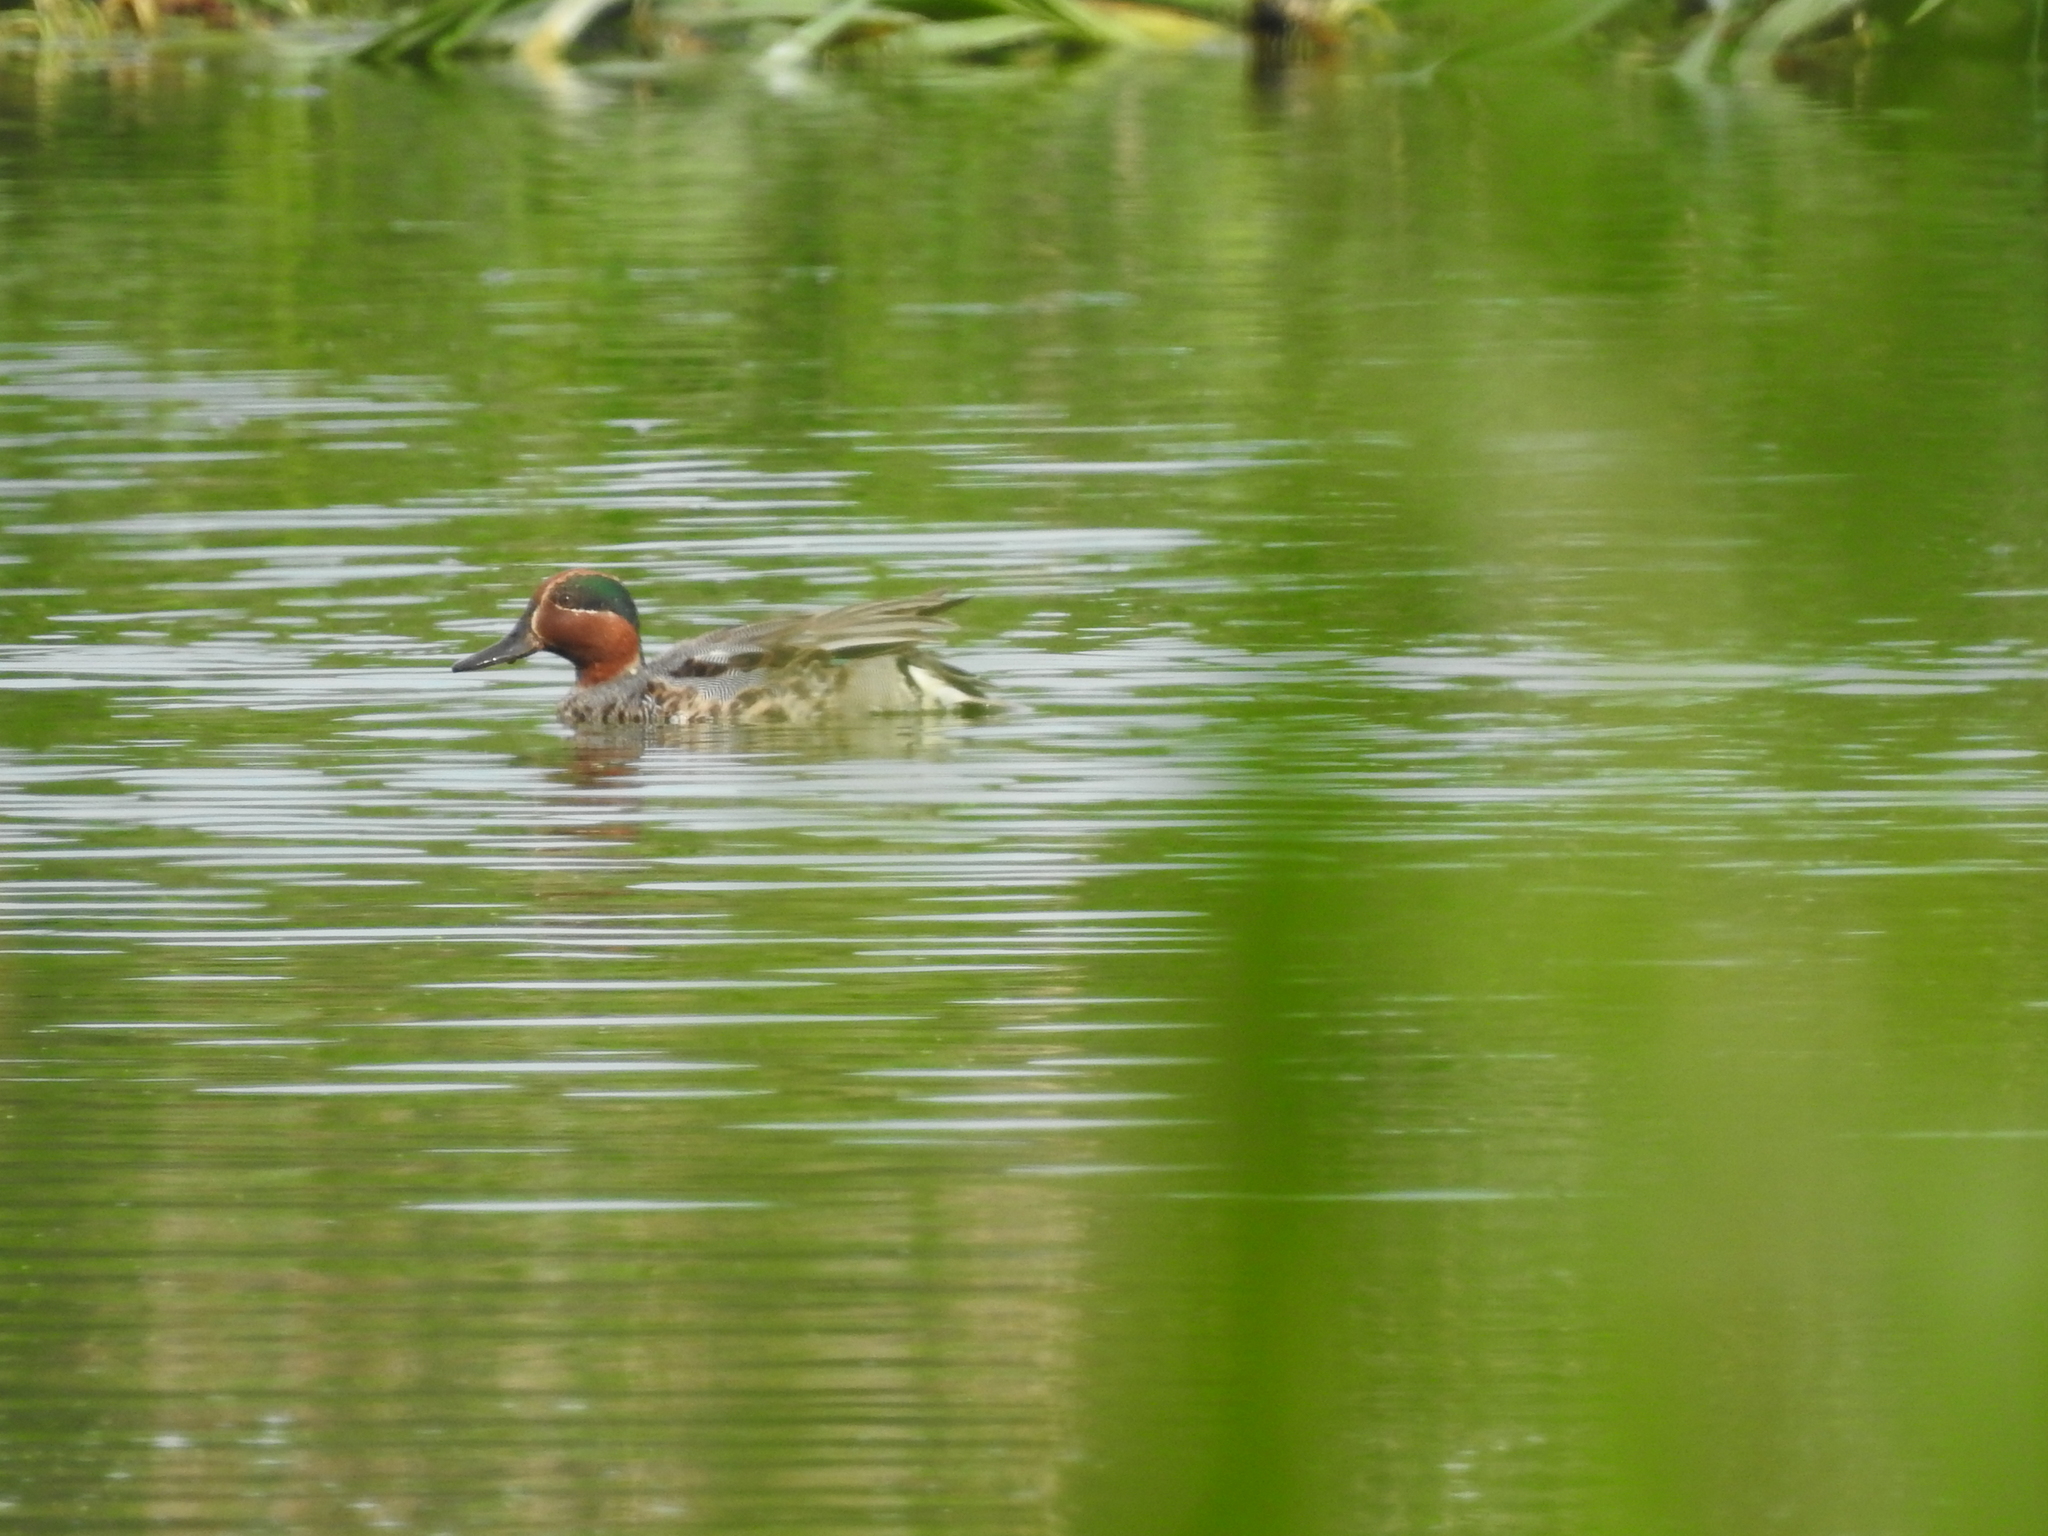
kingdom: Animalia
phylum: Chordata
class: Aves
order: Anseriformes
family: Anatidae
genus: Anas
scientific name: Anas crecca
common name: Eurasian teal
